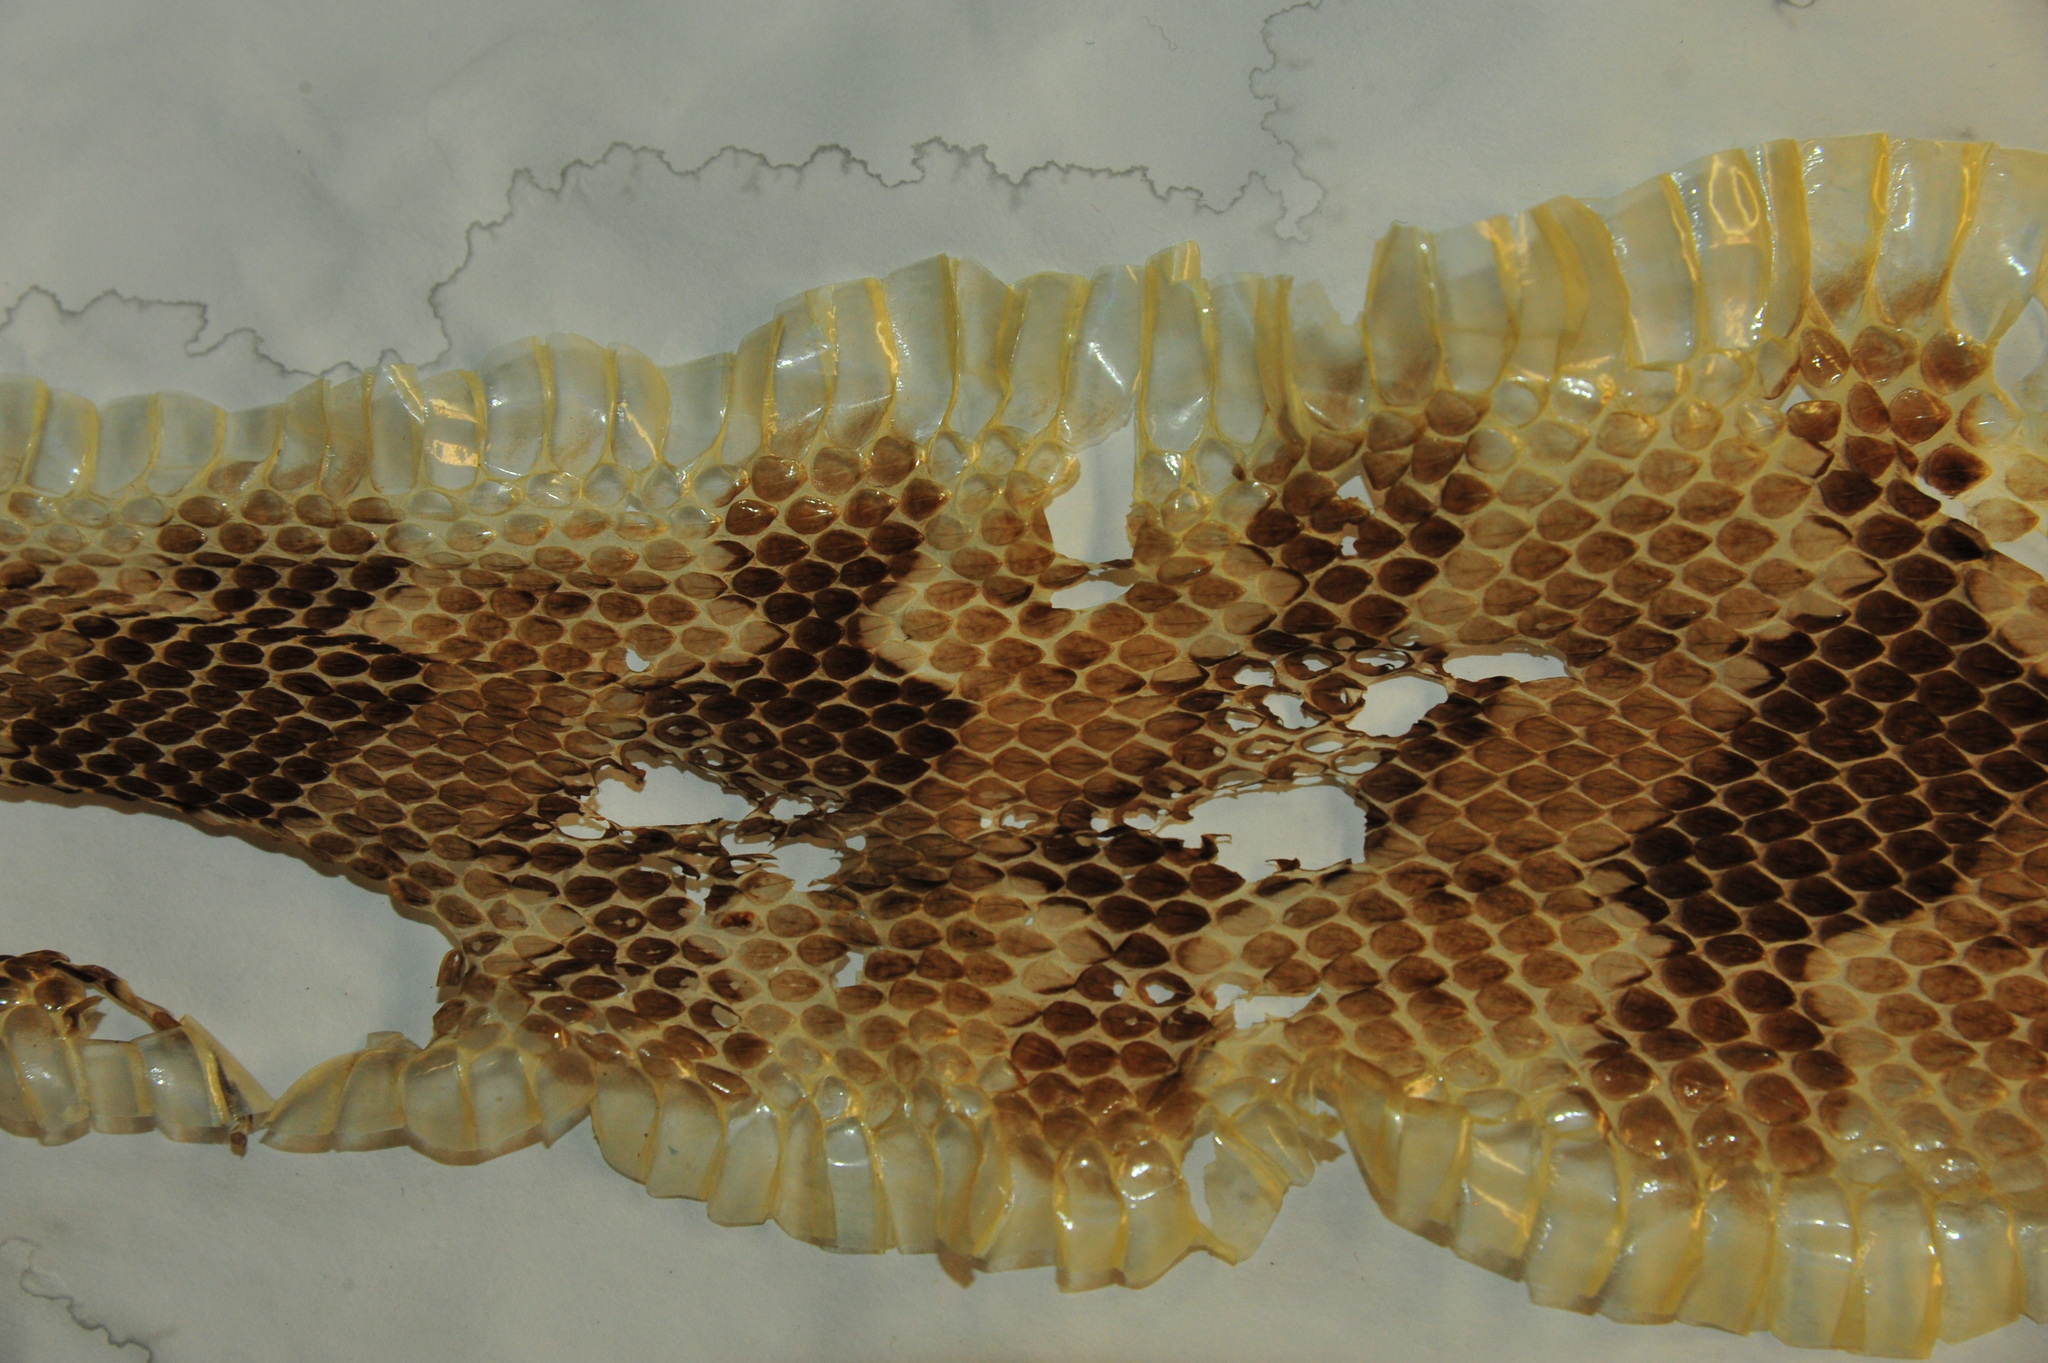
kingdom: Animalia
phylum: Chordata
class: Squamata
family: Viperidae
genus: Crotalus
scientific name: Crotalus horridus
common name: Timber rattlesnake
